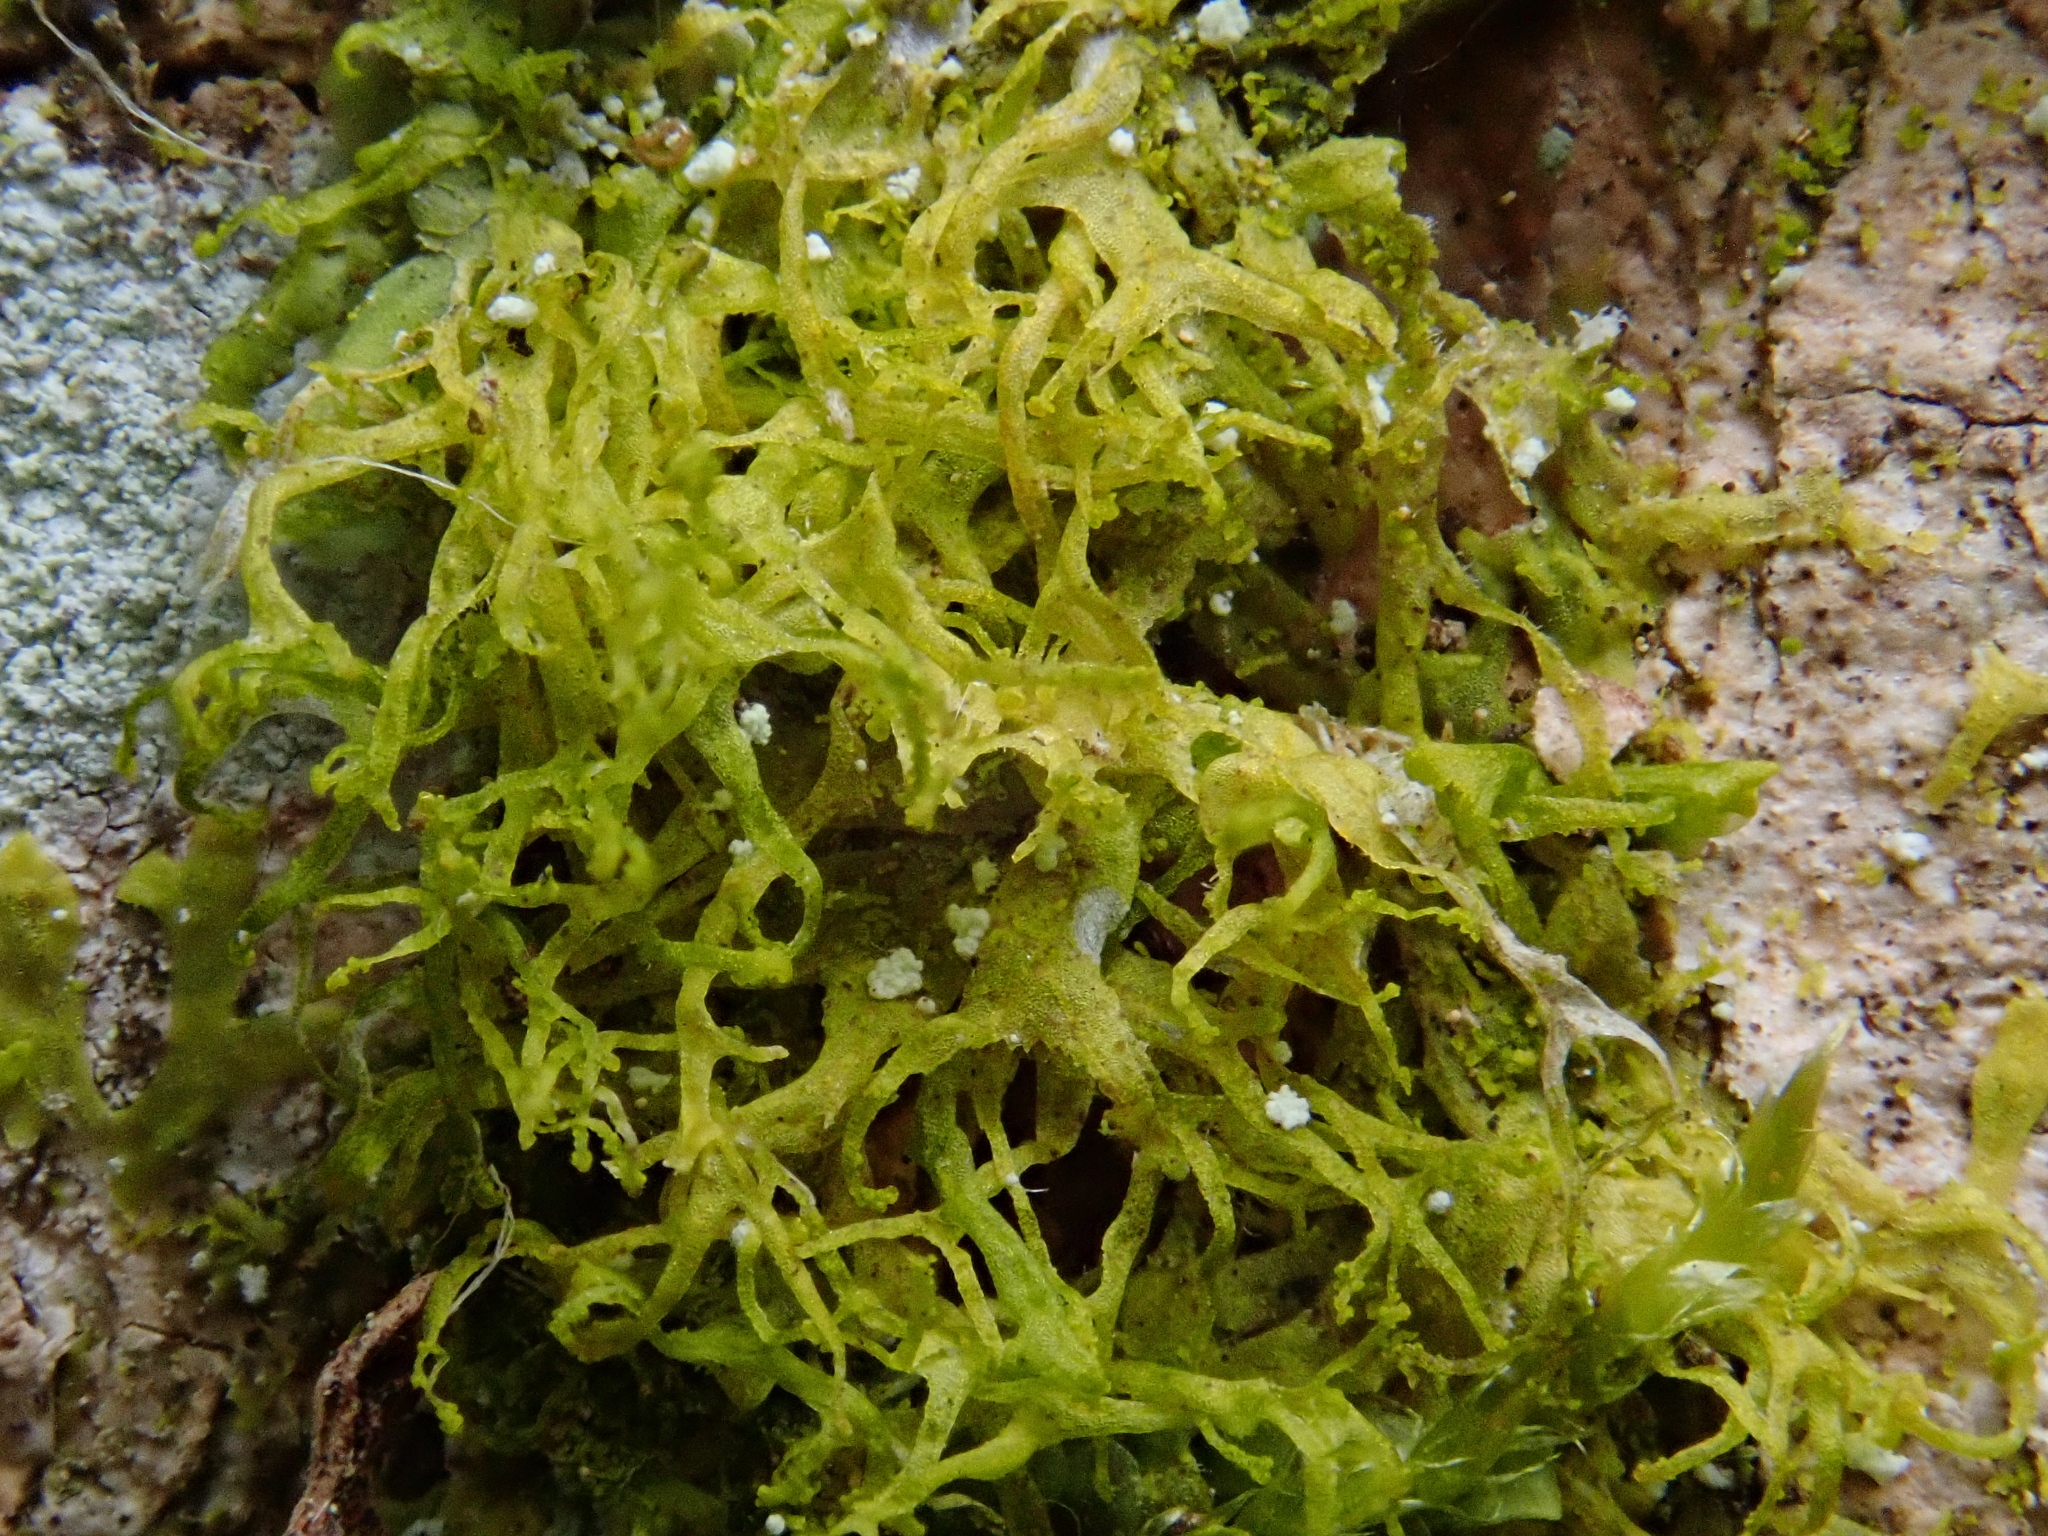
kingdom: Plantae
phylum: Marchantiophyta
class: Jungermanniopsida
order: Metzgeriales
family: Metzgeriaceae
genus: Metzgeria
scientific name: Metzgeria violacea
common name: Blueish veilwort
